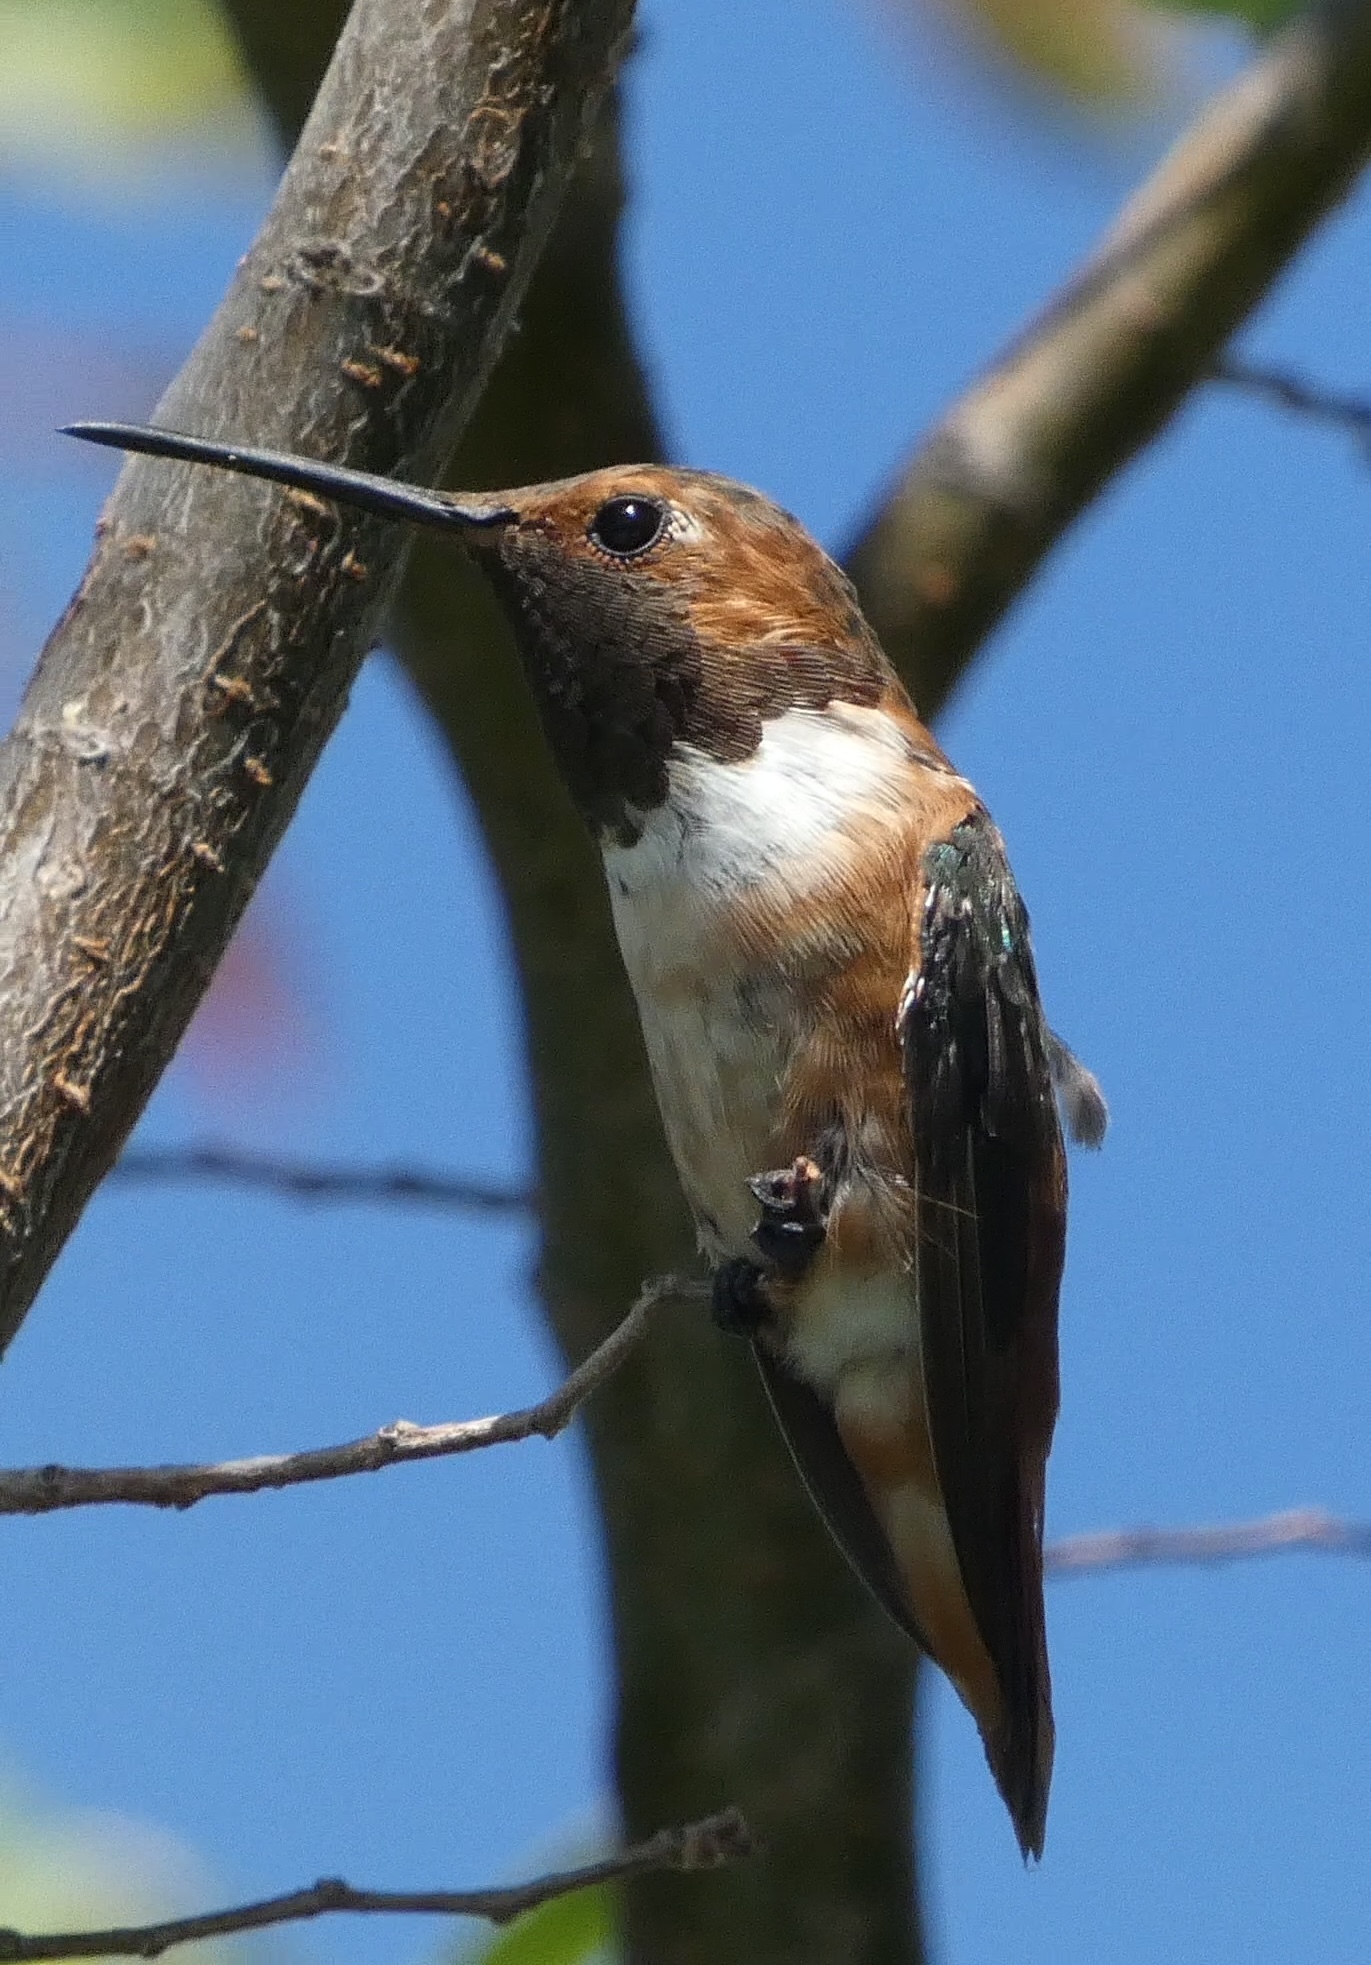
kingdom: Animalia
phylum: Chordata
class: Aves
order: Apodiformes
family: Trochilidae
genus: Selasphorus
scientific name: Selasphorus sasin
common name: Allen's hummingbird
